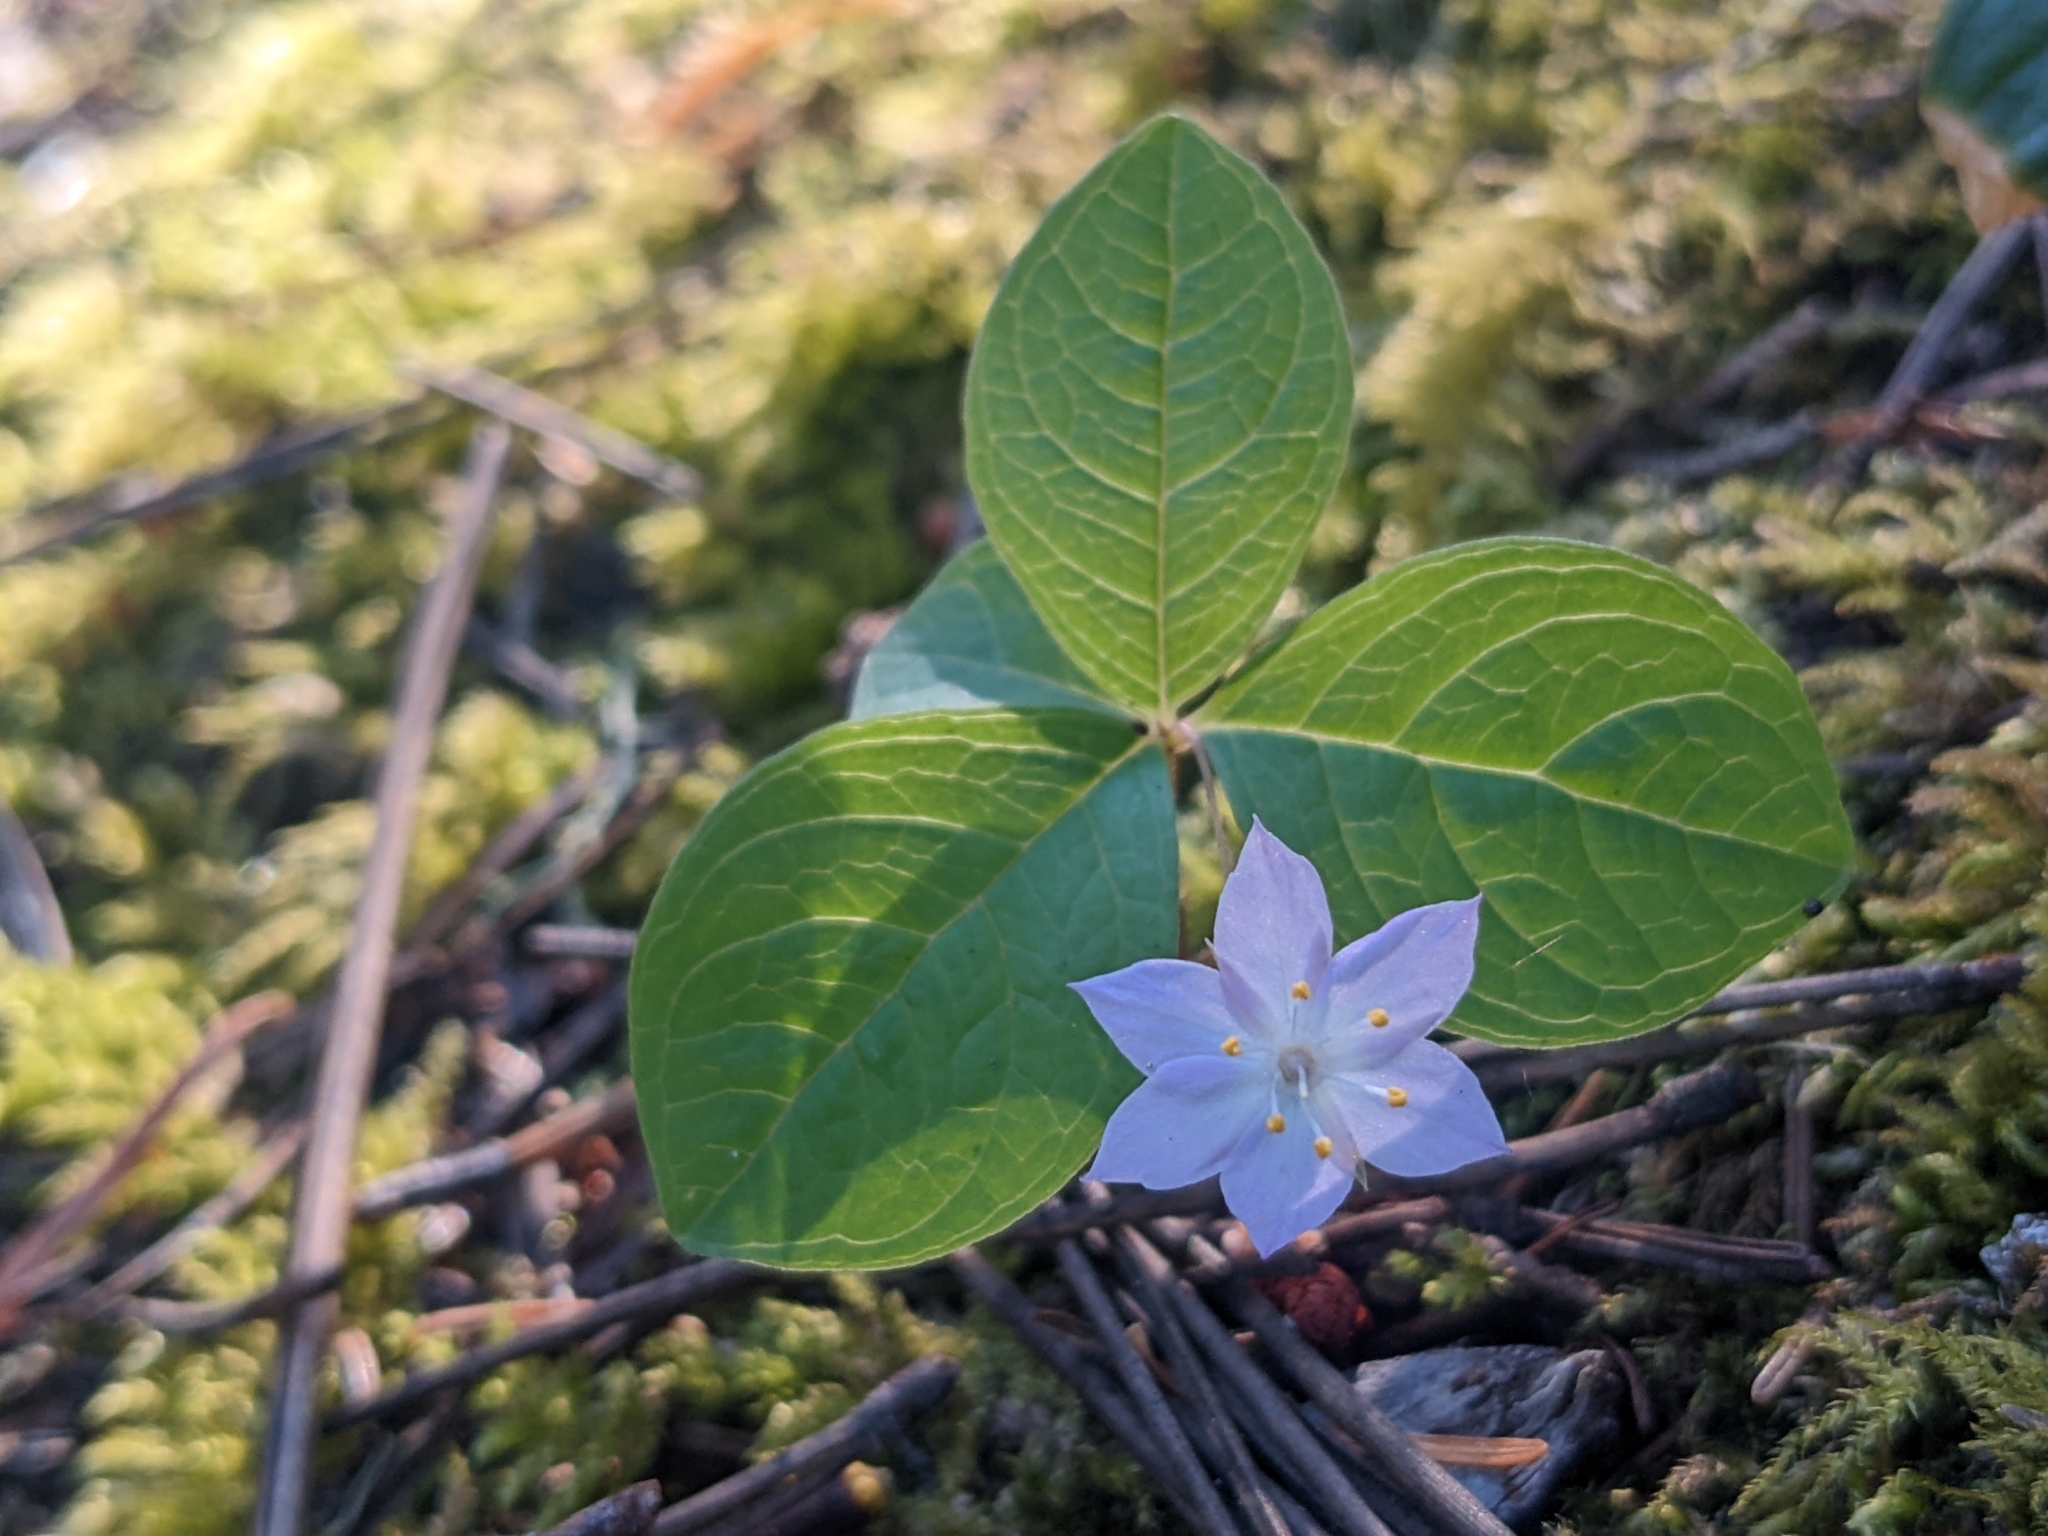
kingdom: Plantae
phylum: Tracheophyta
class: Magnoliopsida
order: Ericales
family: Primulaceae
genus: Lysimachia
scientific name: Lysimachia latifolia
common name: Pacific starflower
